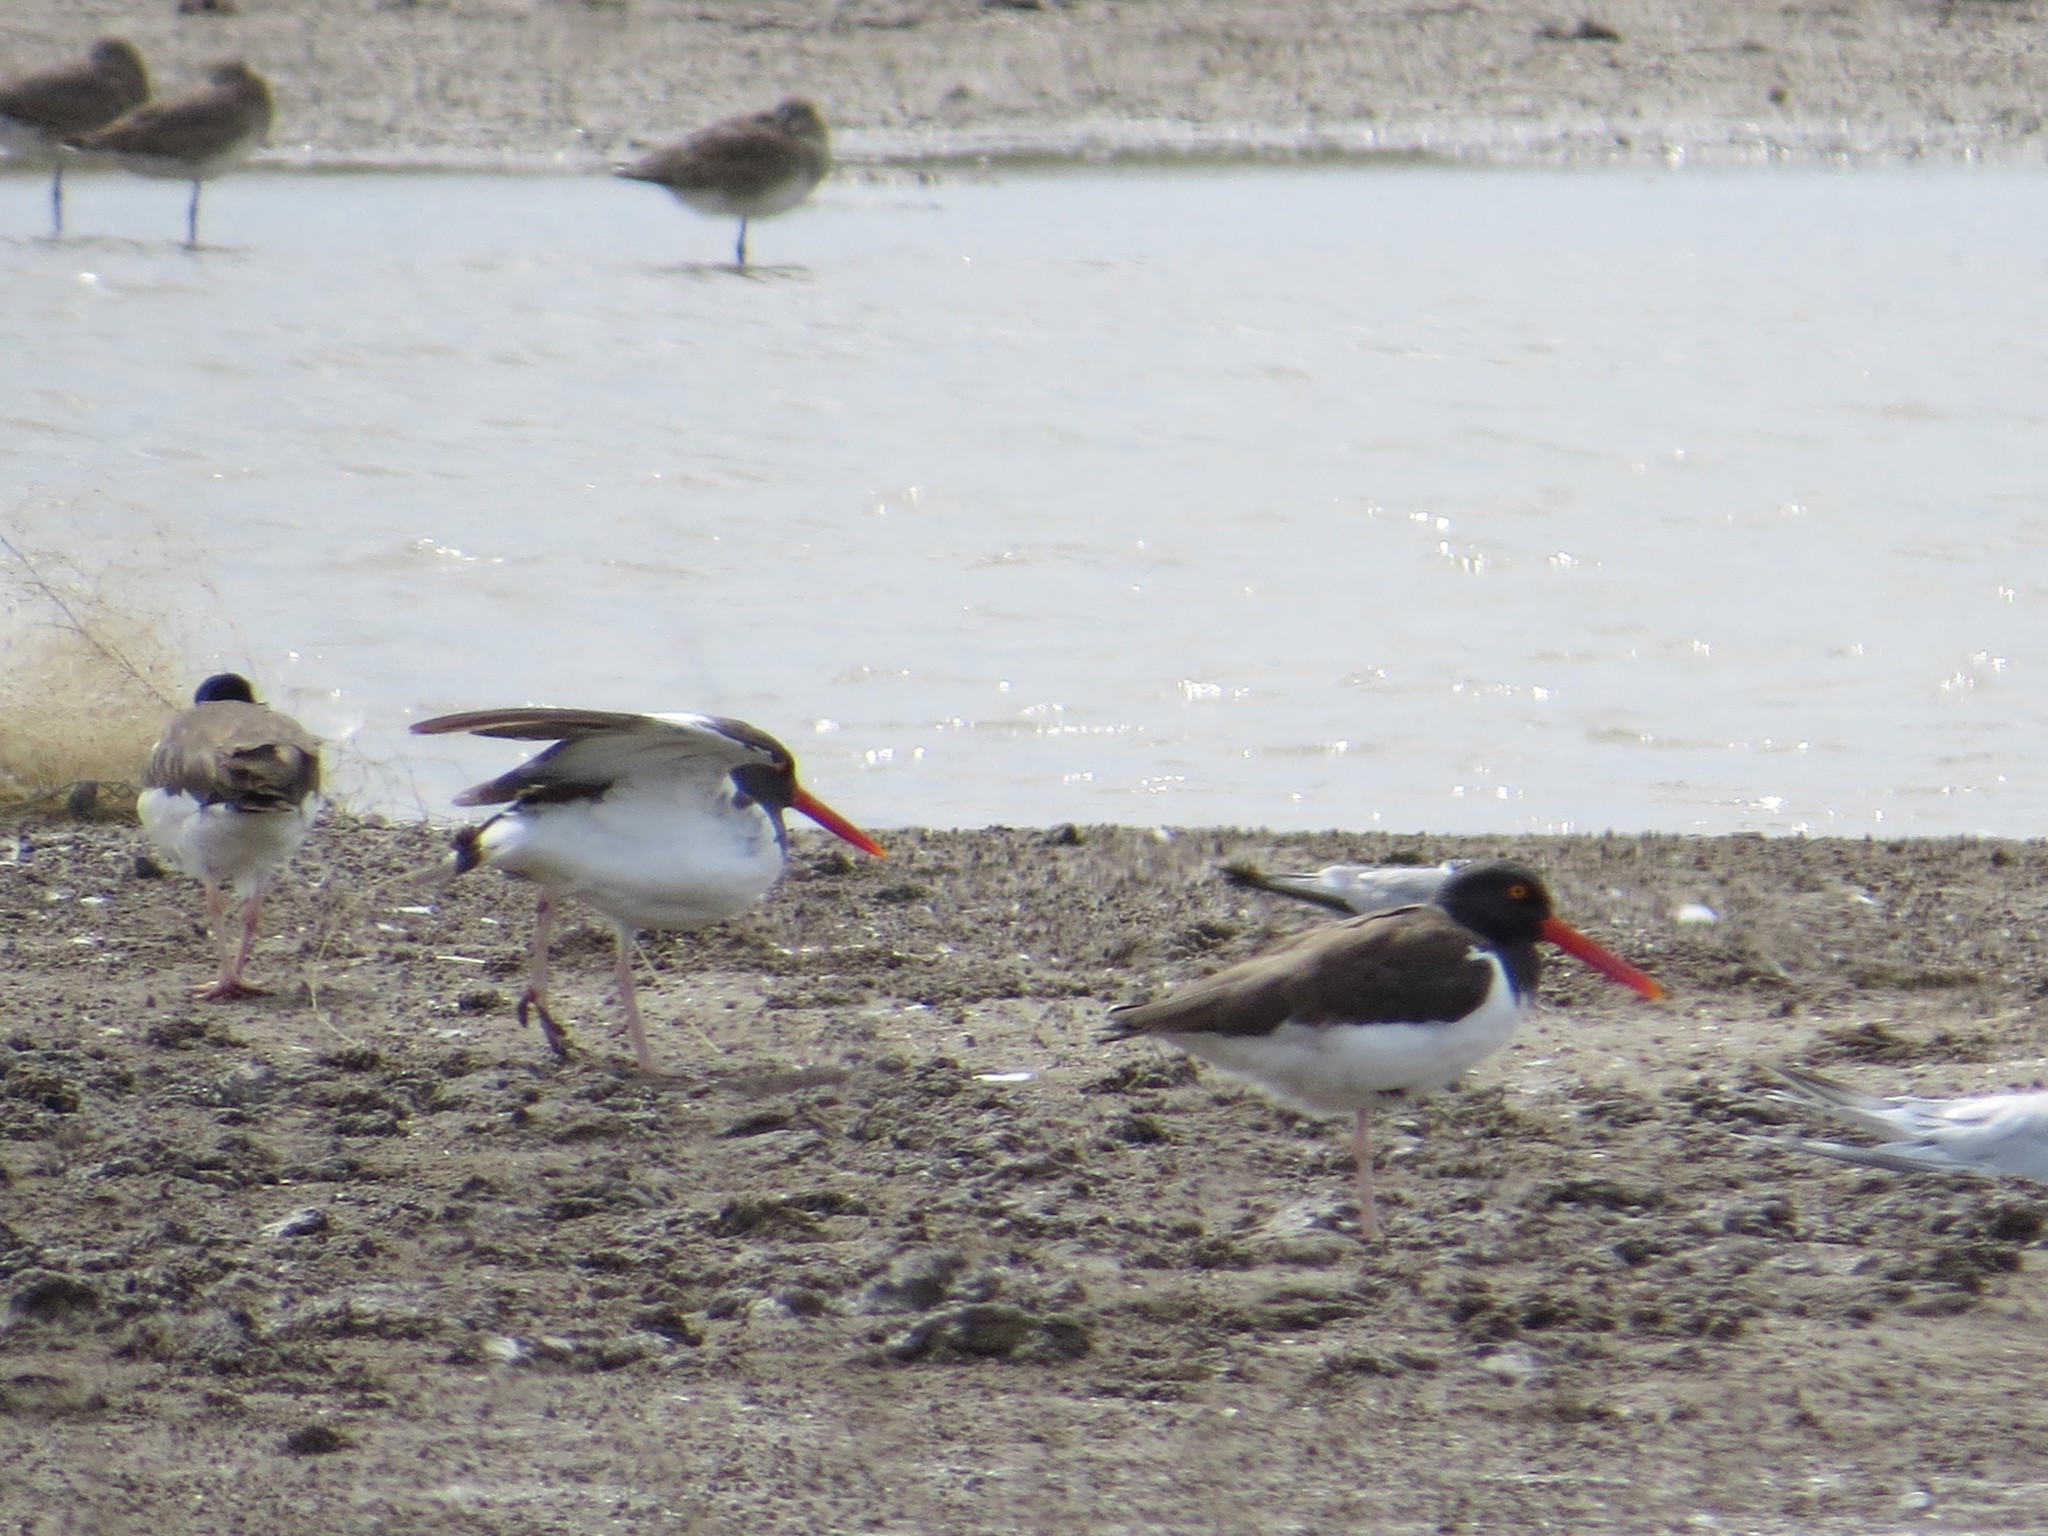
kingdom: Animalia
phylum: Chordata
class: Aves
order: Charadriiformes
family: Haematopodidae
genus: Haematopus
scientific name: Haematopus palliatus
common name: American oystercatcher
